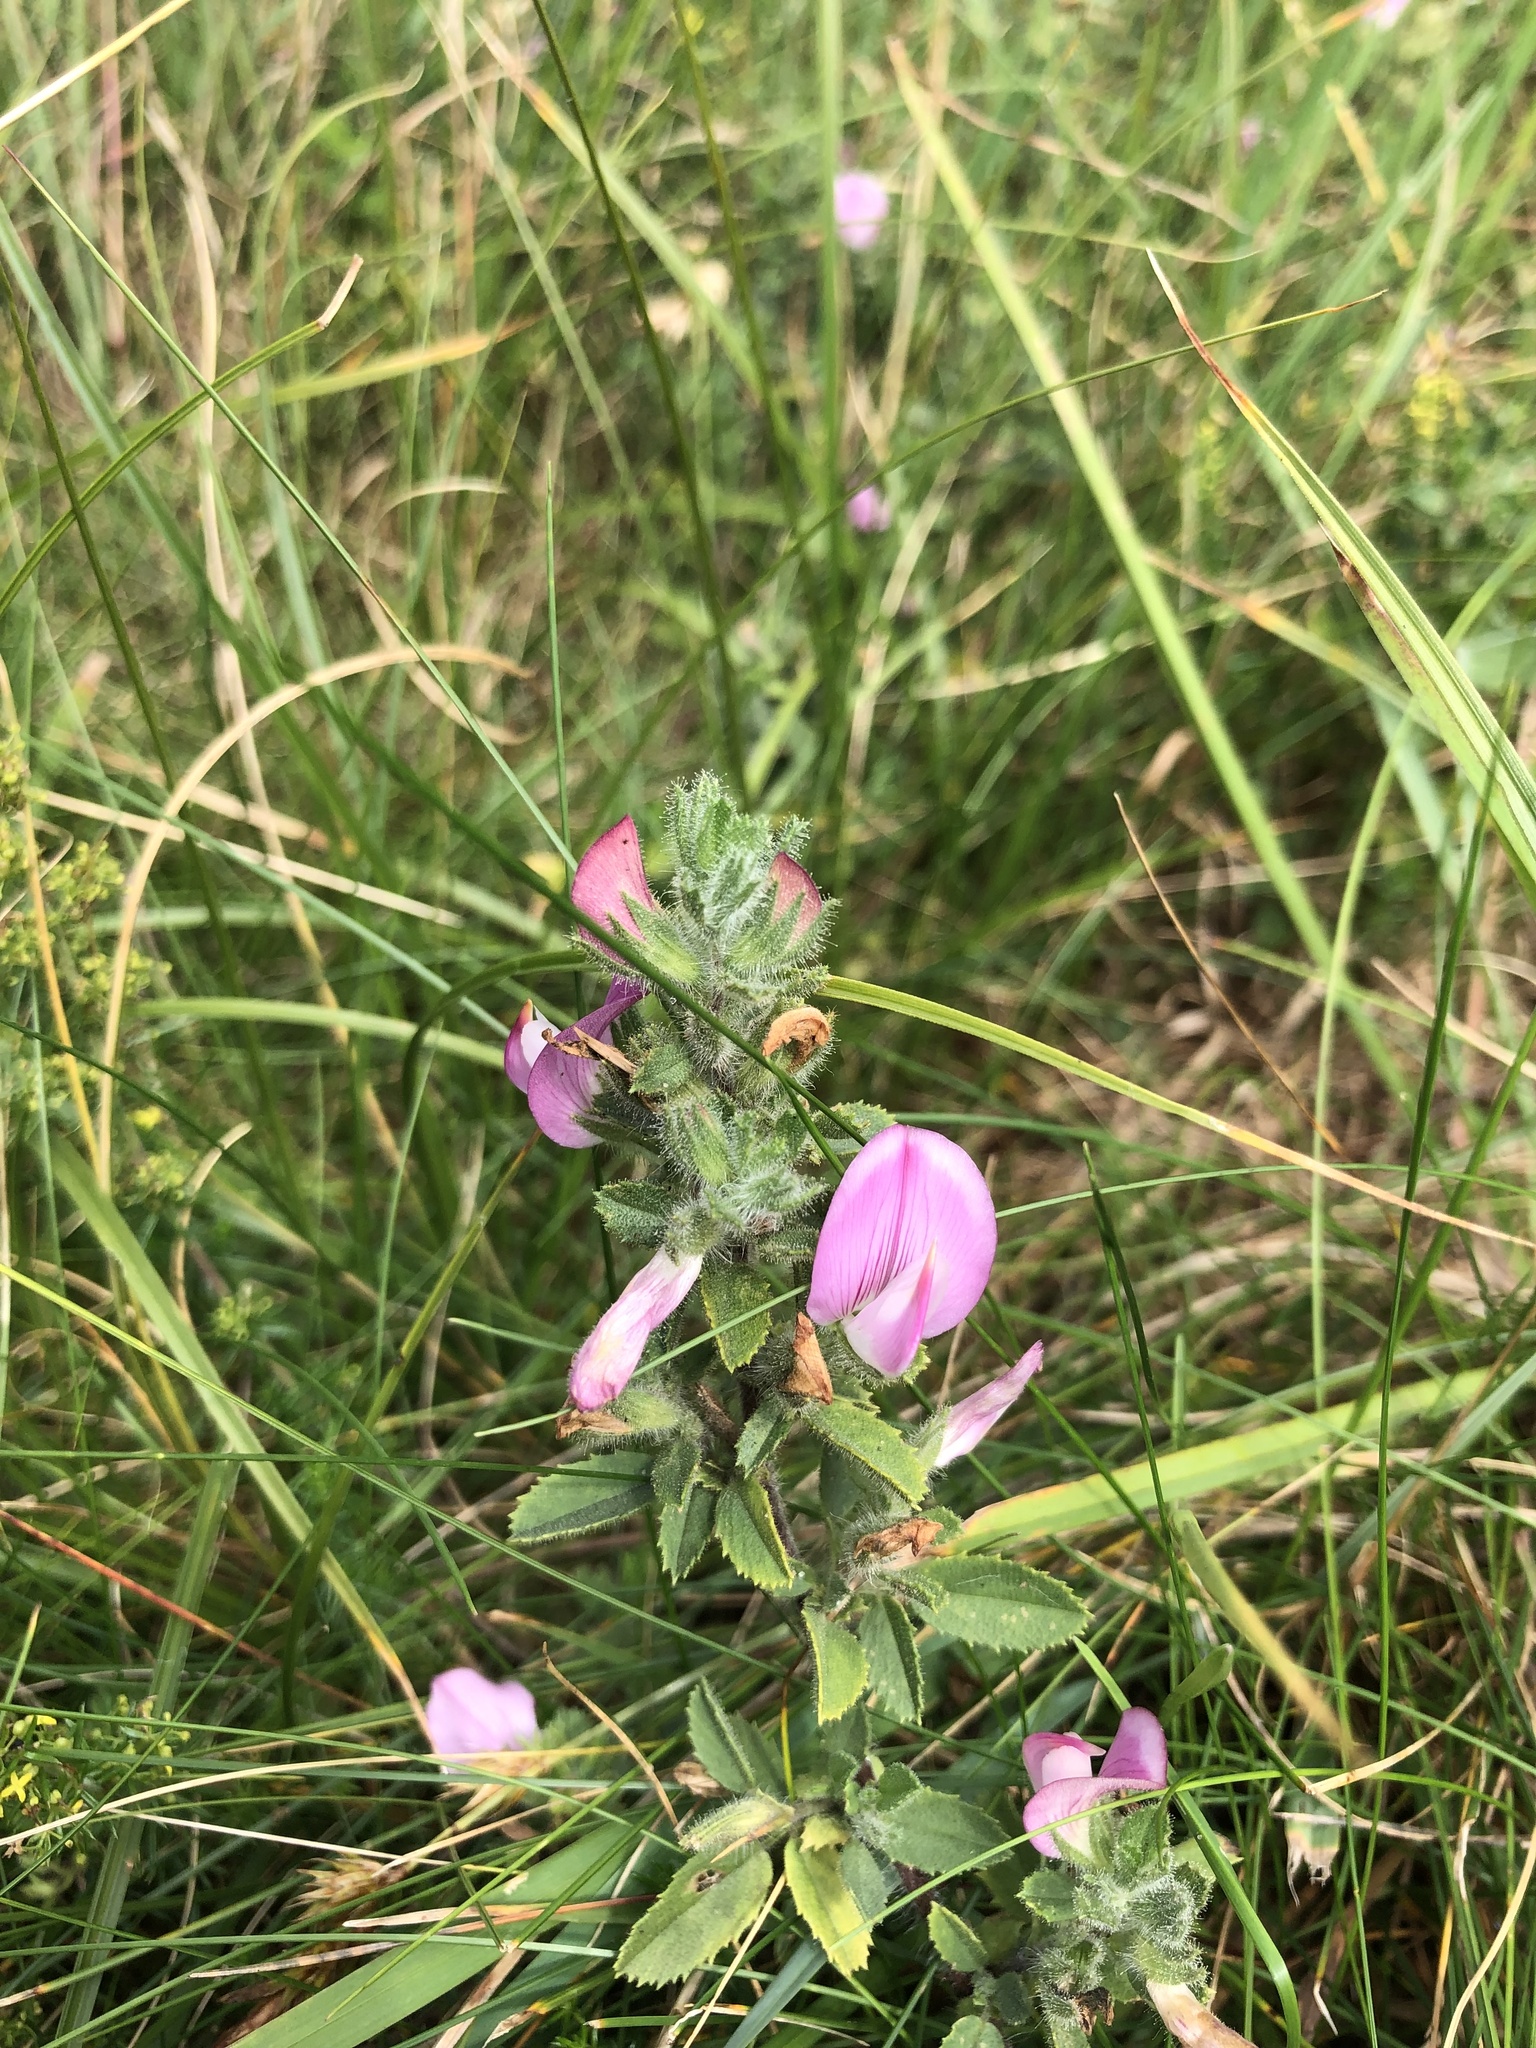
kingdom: Plantae
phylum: Tracheophyta
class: Magnoliopsida
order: Fabales
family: Fabaceae
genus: Ononis
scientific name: Ononis spinosa
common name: Spiny restharrow
